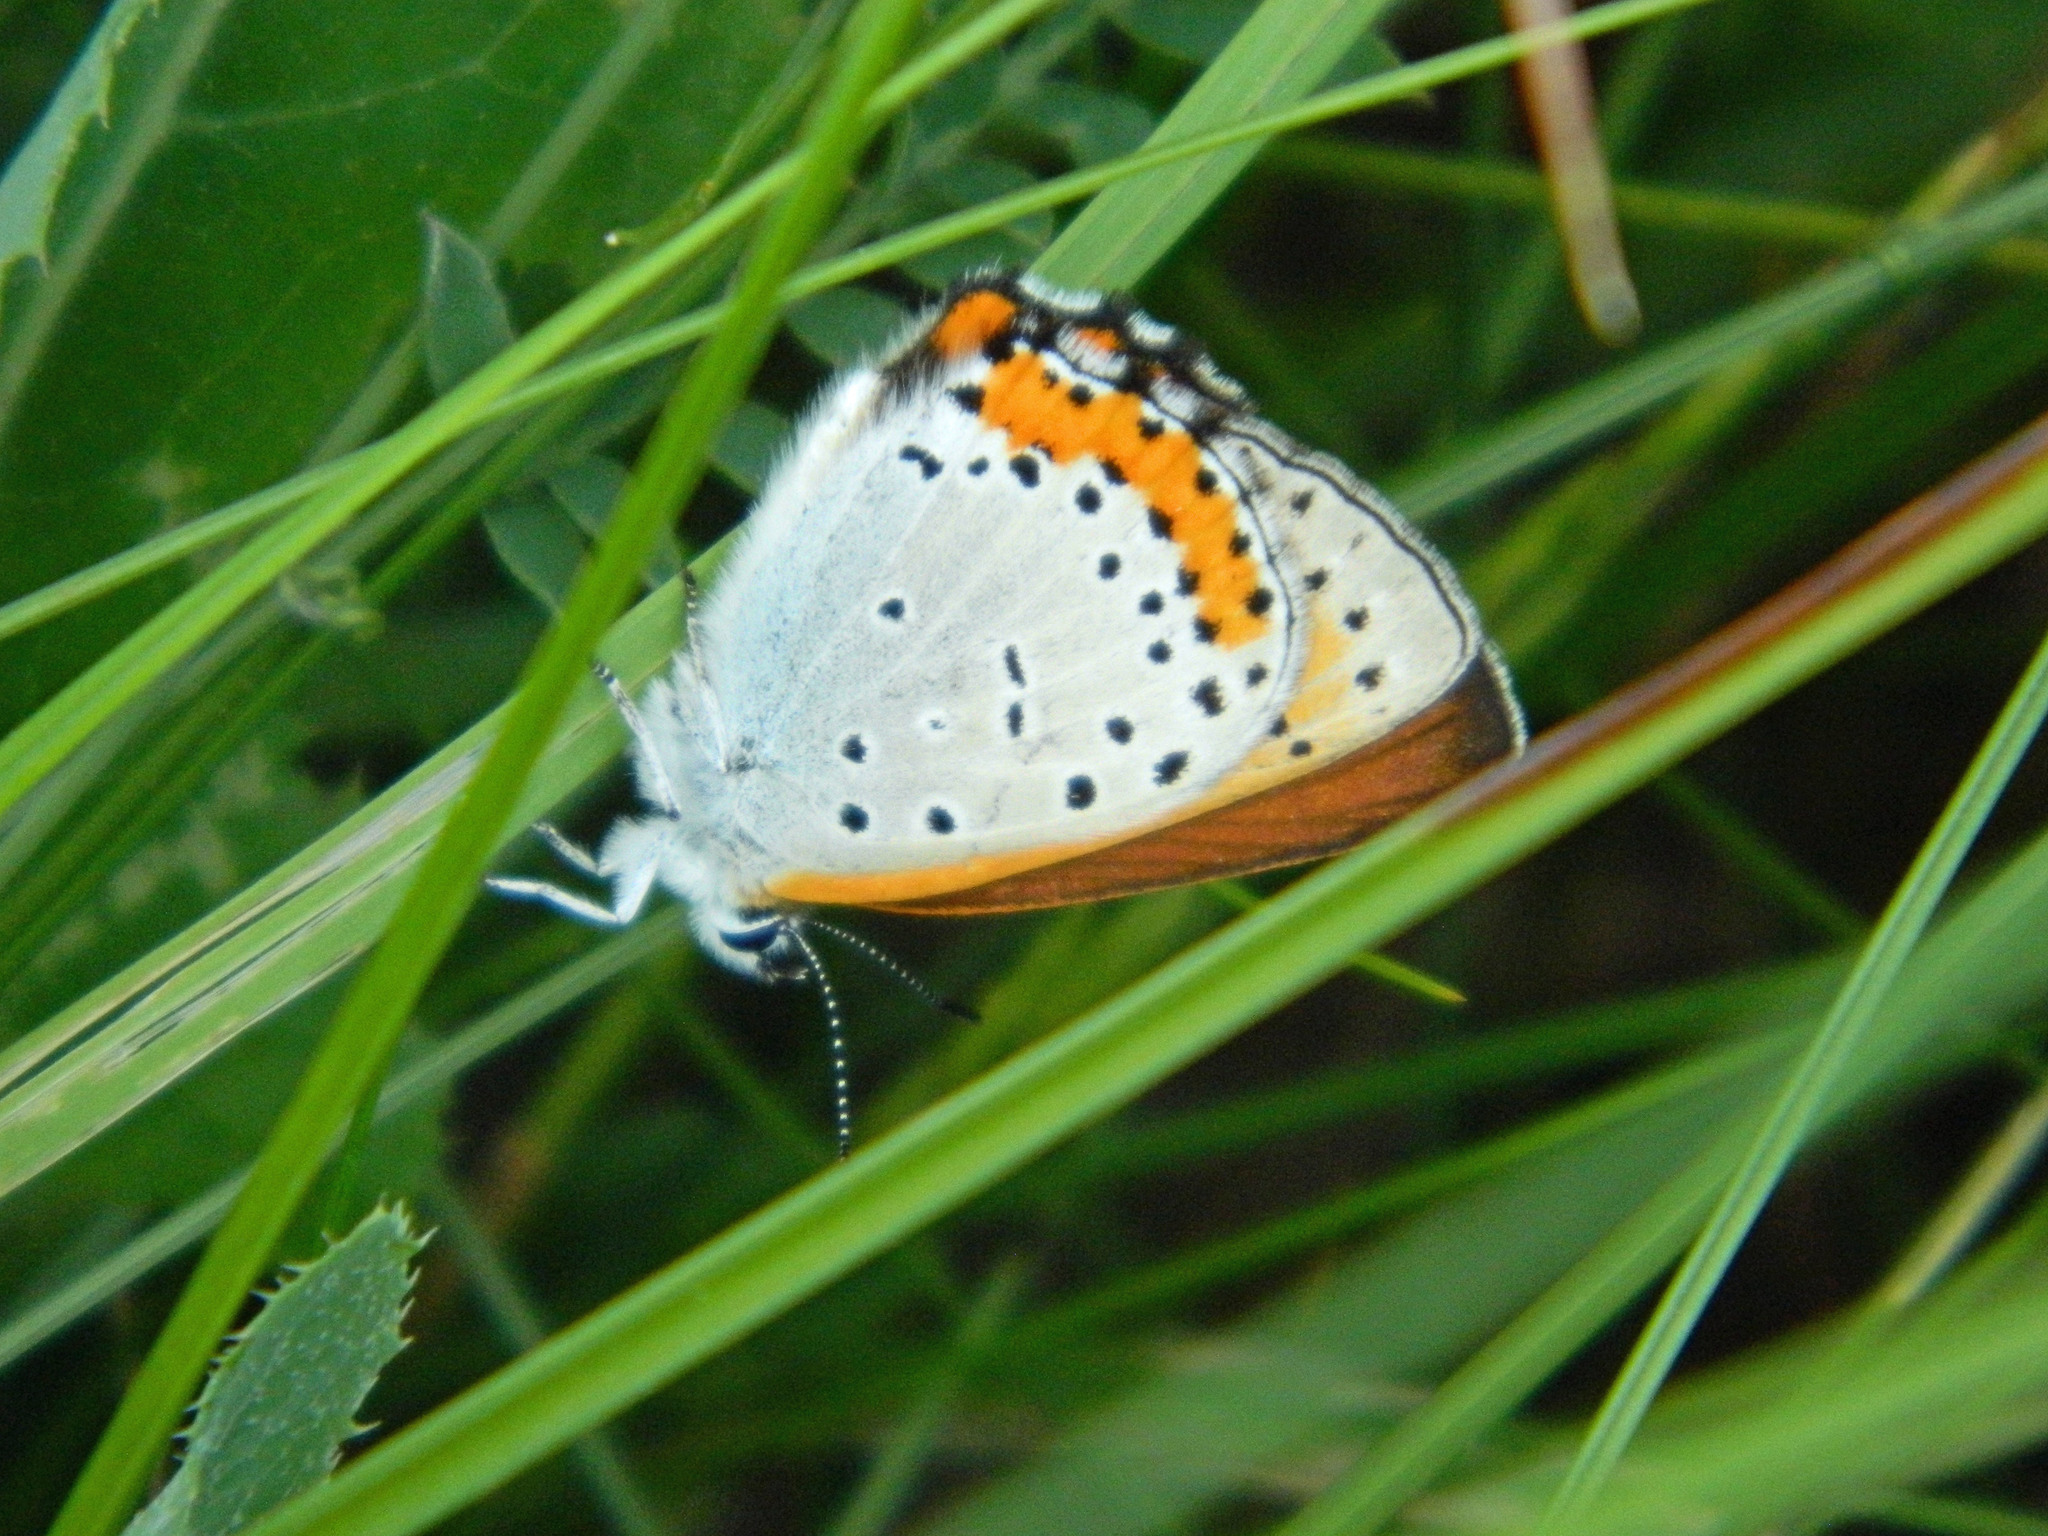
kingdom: Animalia
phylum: Arthropoda
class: Insecta
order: Lepidoptera
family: Lycaenidae
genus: Tharsalea
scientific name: Tharsalea hyllus
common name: Bronze copper
